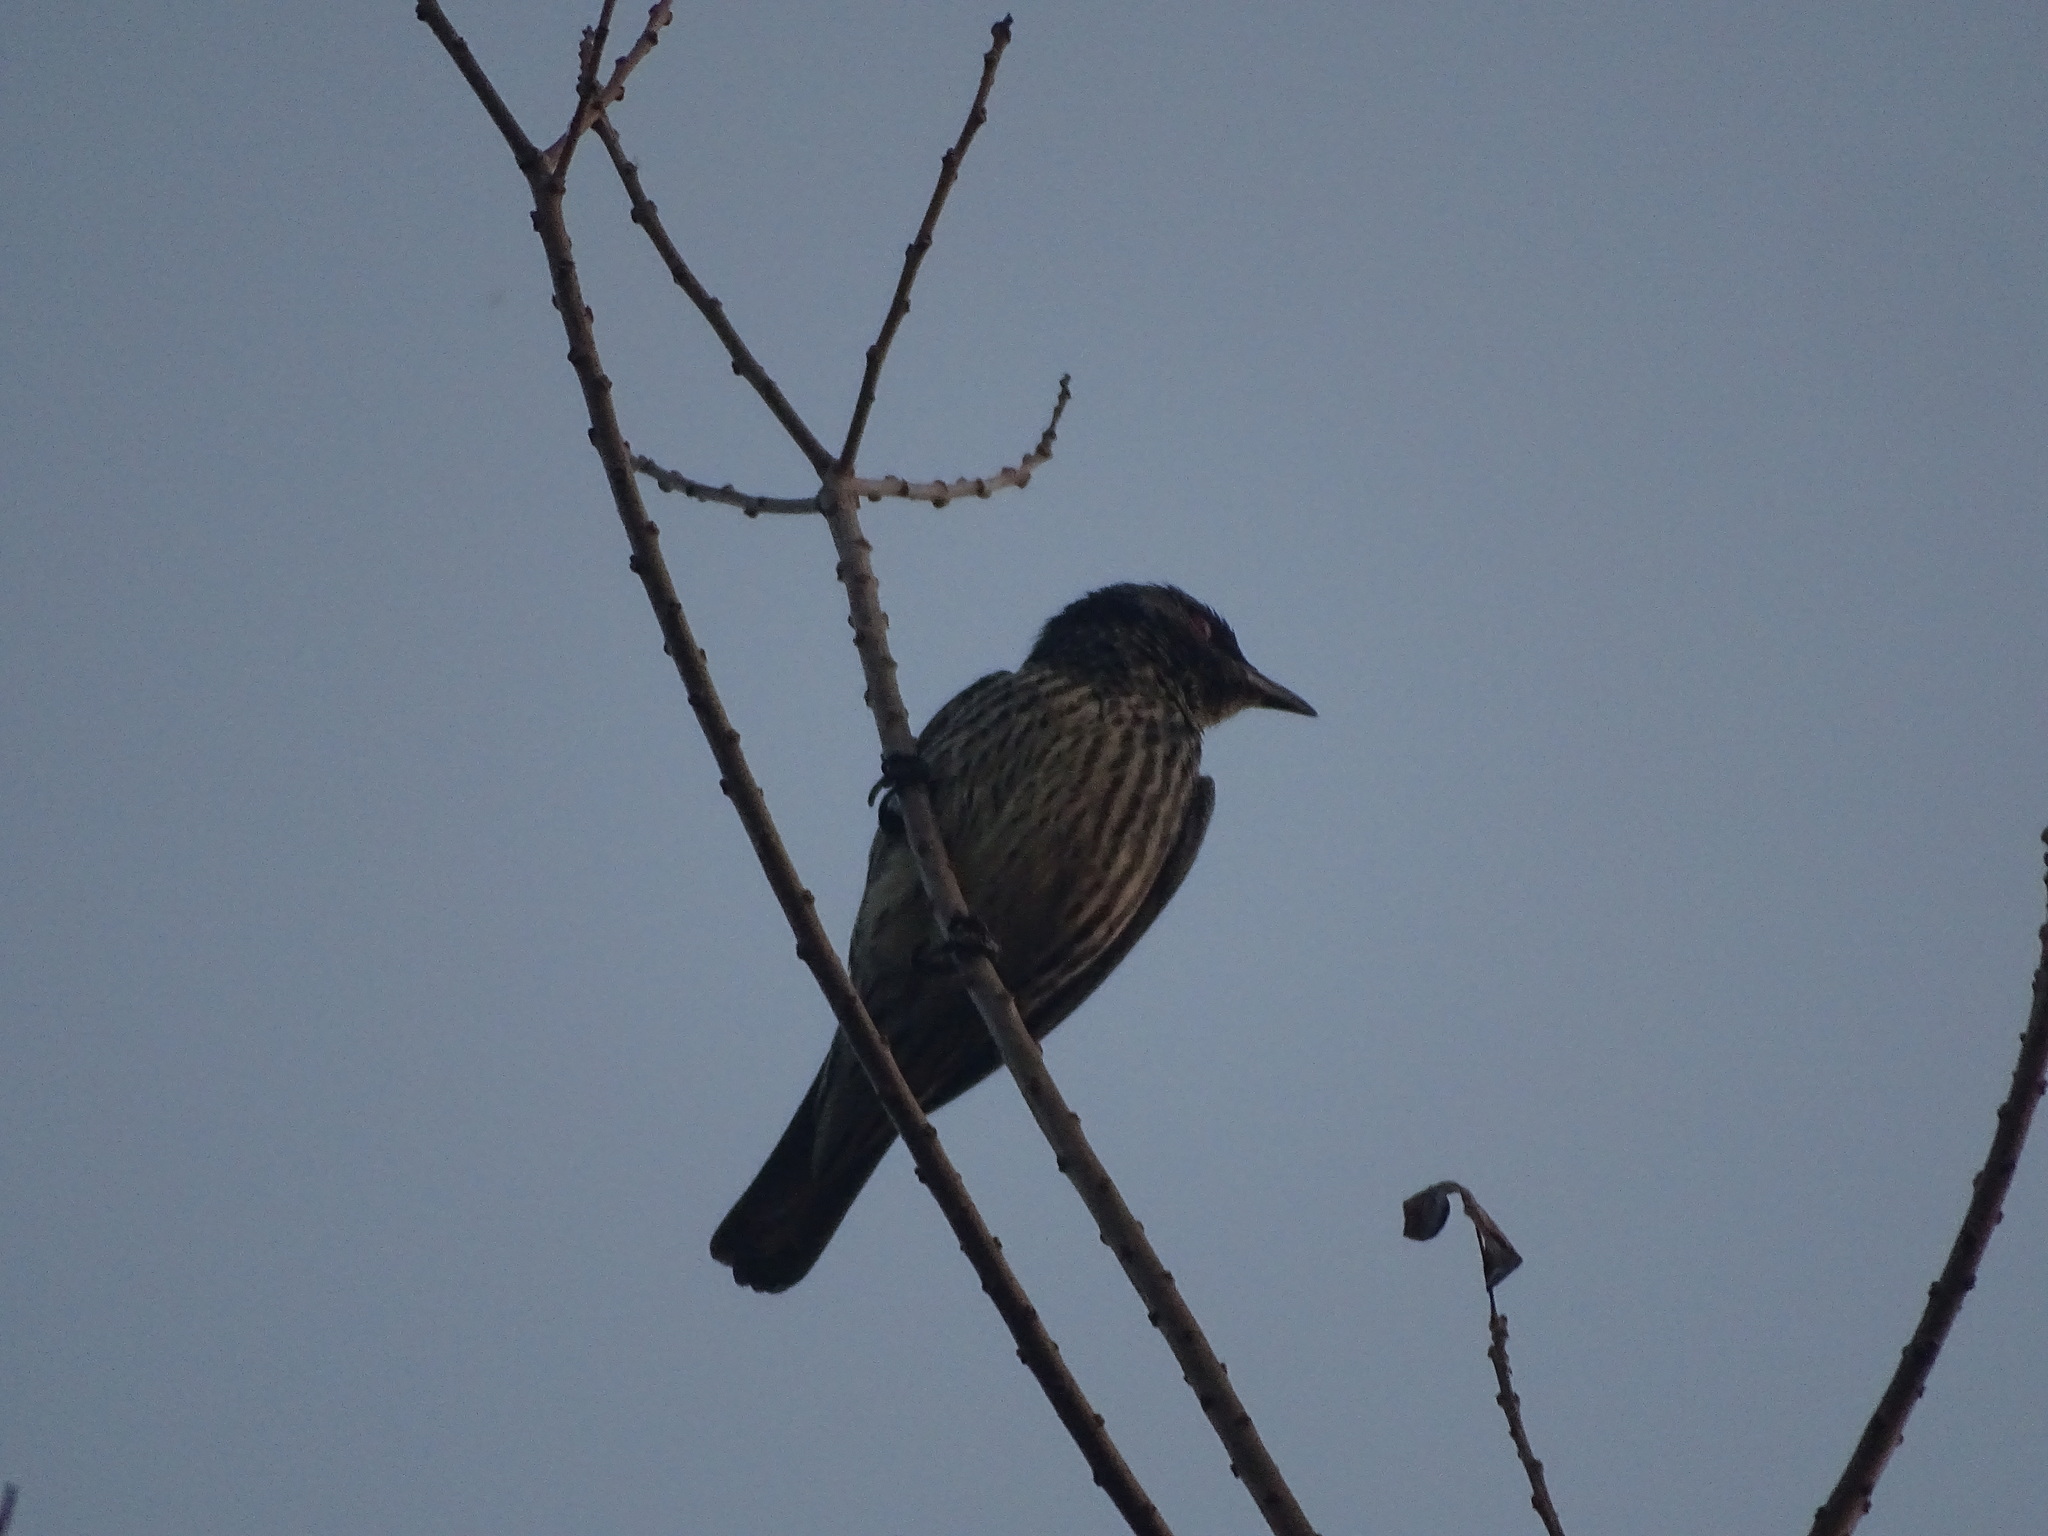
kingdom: Animalia
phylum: Chordata
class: Aves
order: Passeriformes
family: Sturnidae
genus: Aplonis
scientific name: Aplonis panayensis
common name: Asian glossy starling
